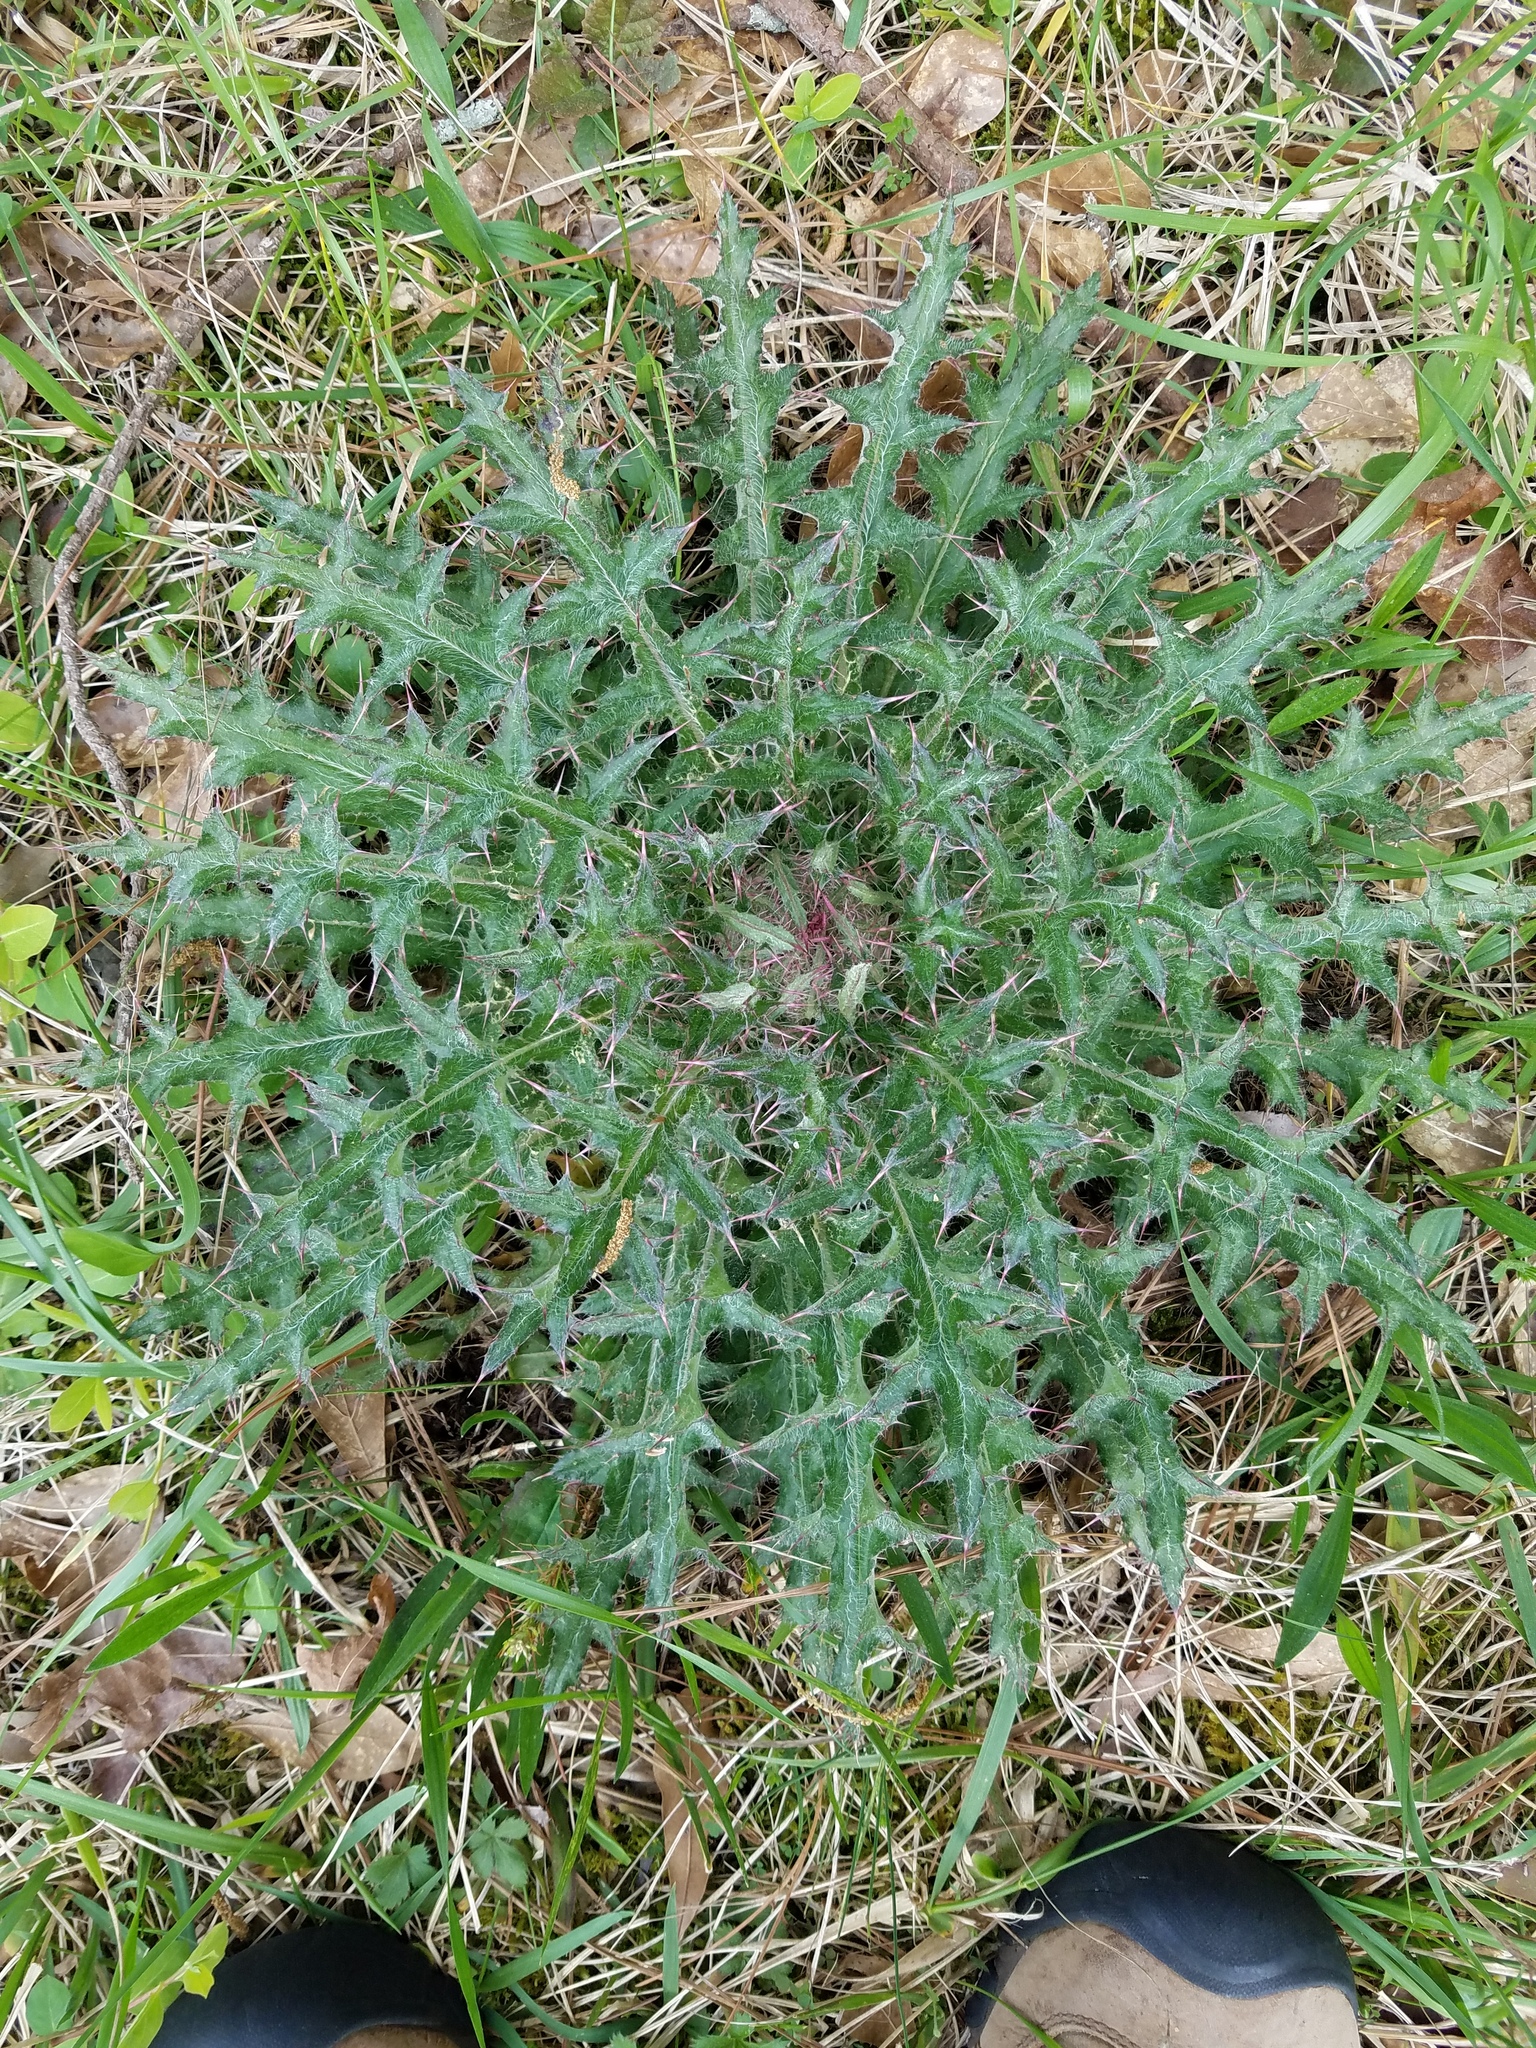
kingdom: Plantae
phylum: Tracheophyta
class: Magnoliopsida
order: Asterales
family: Asteraceae
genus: Cirsium
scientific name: Cirsium horridulum
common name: Bristly thistle
